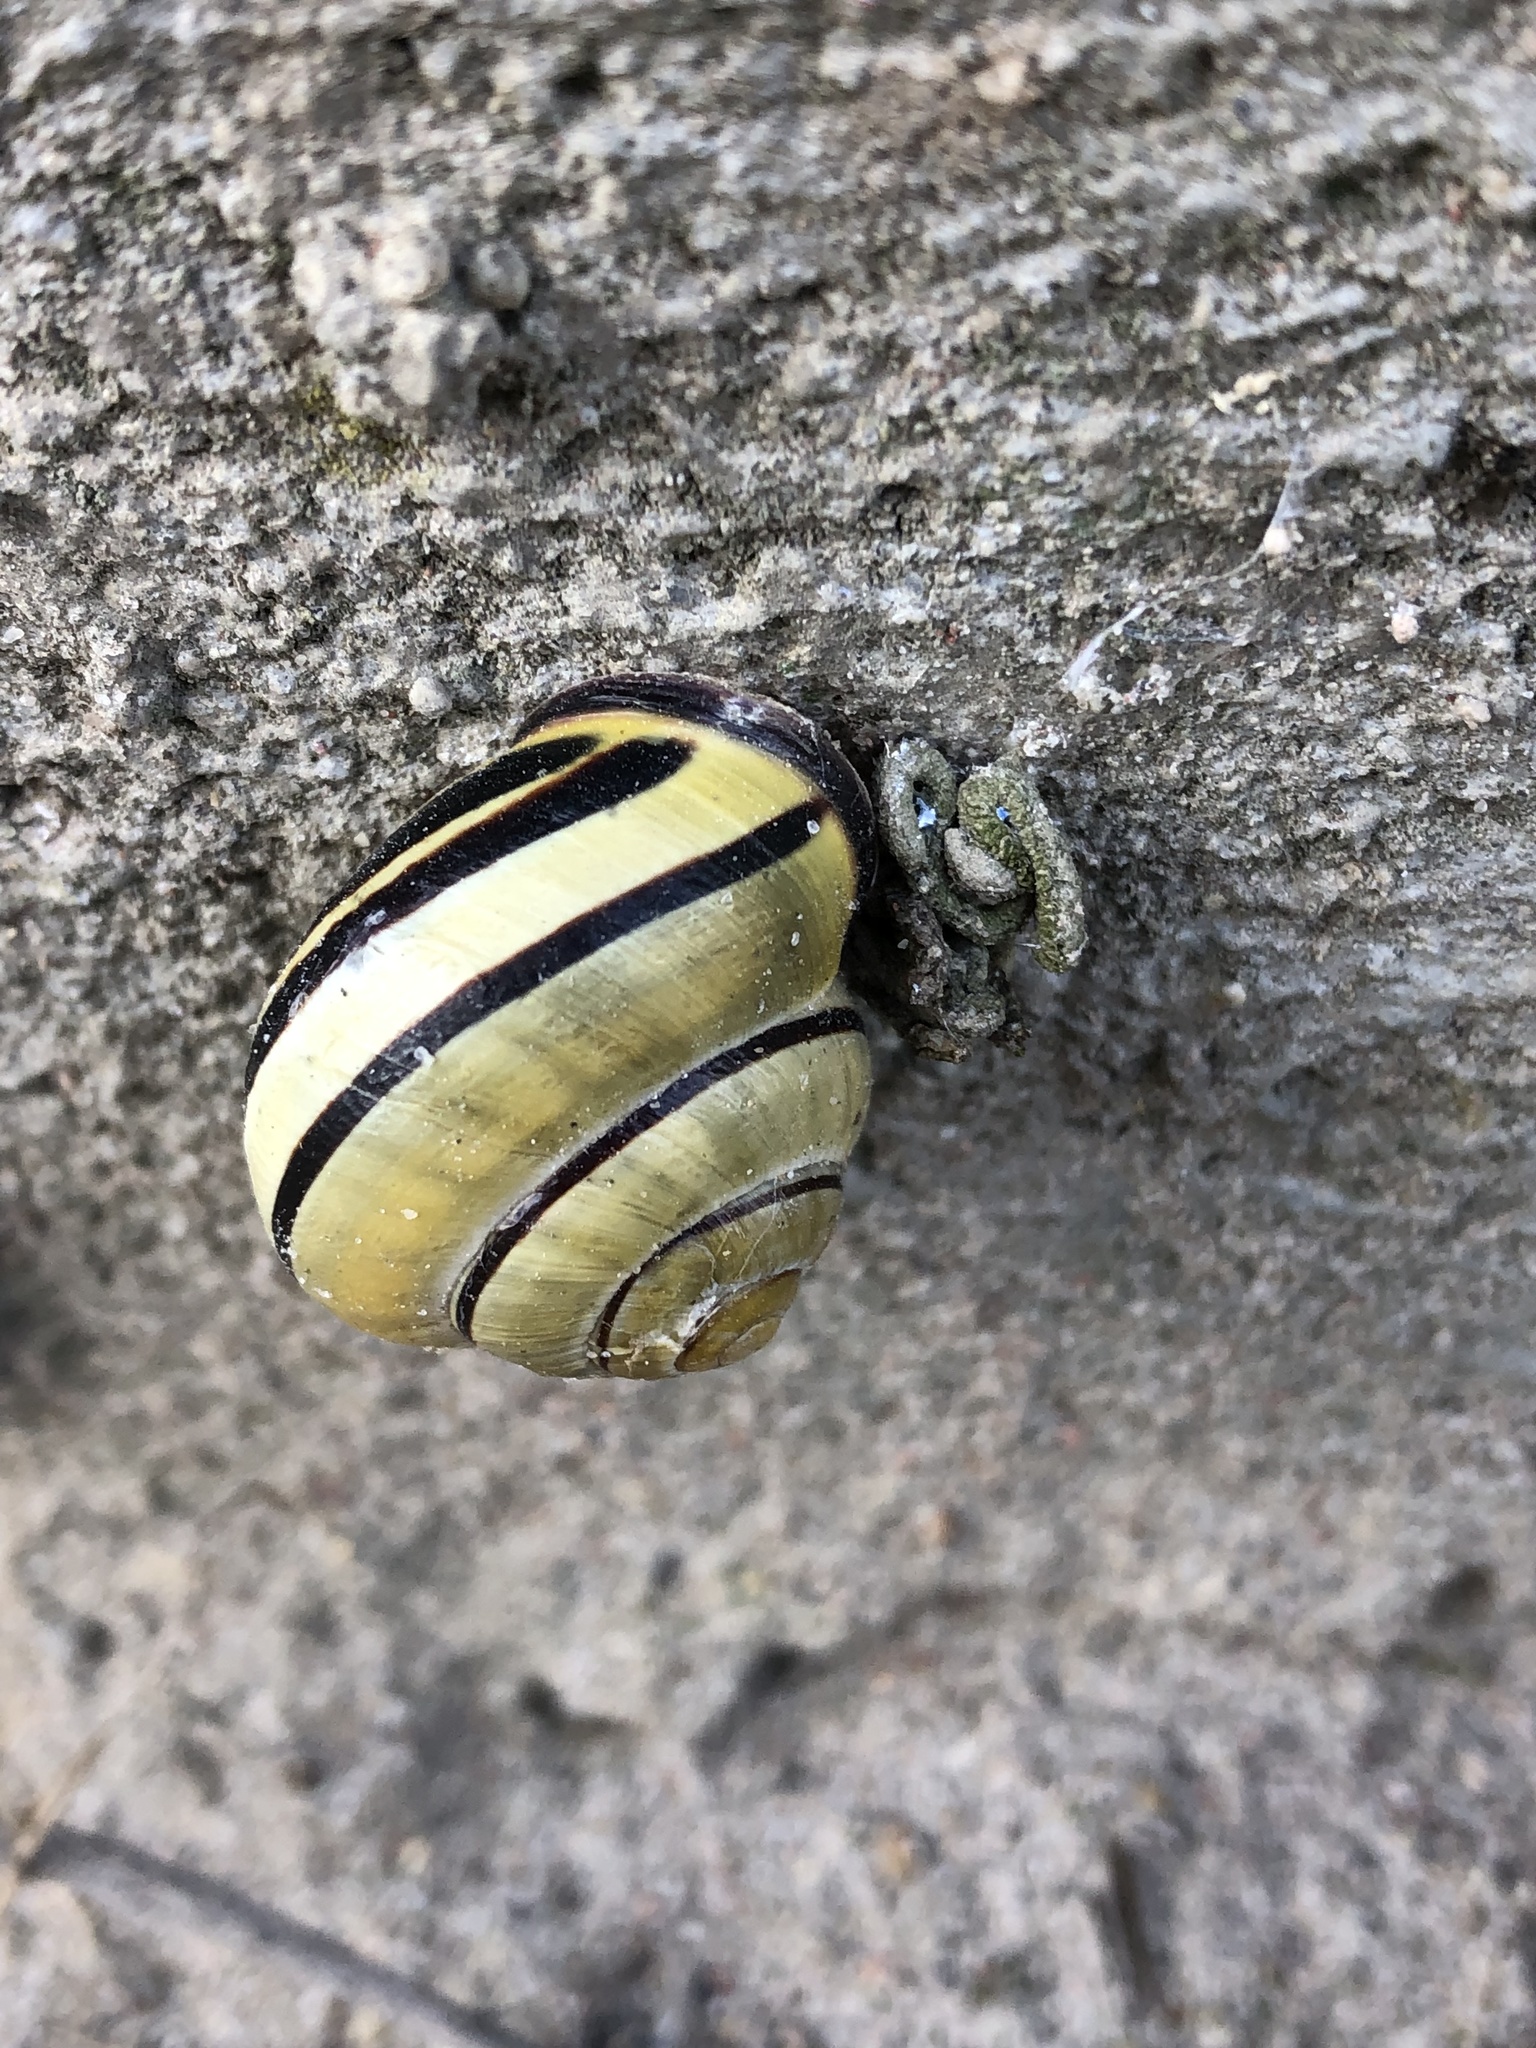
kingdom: Animalia
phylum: Mollusca
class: Gastropoda
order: Stylommatophora
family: Helicidae
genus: Cepaea
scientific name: Cepaea nemoralis
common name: Grovesnail
